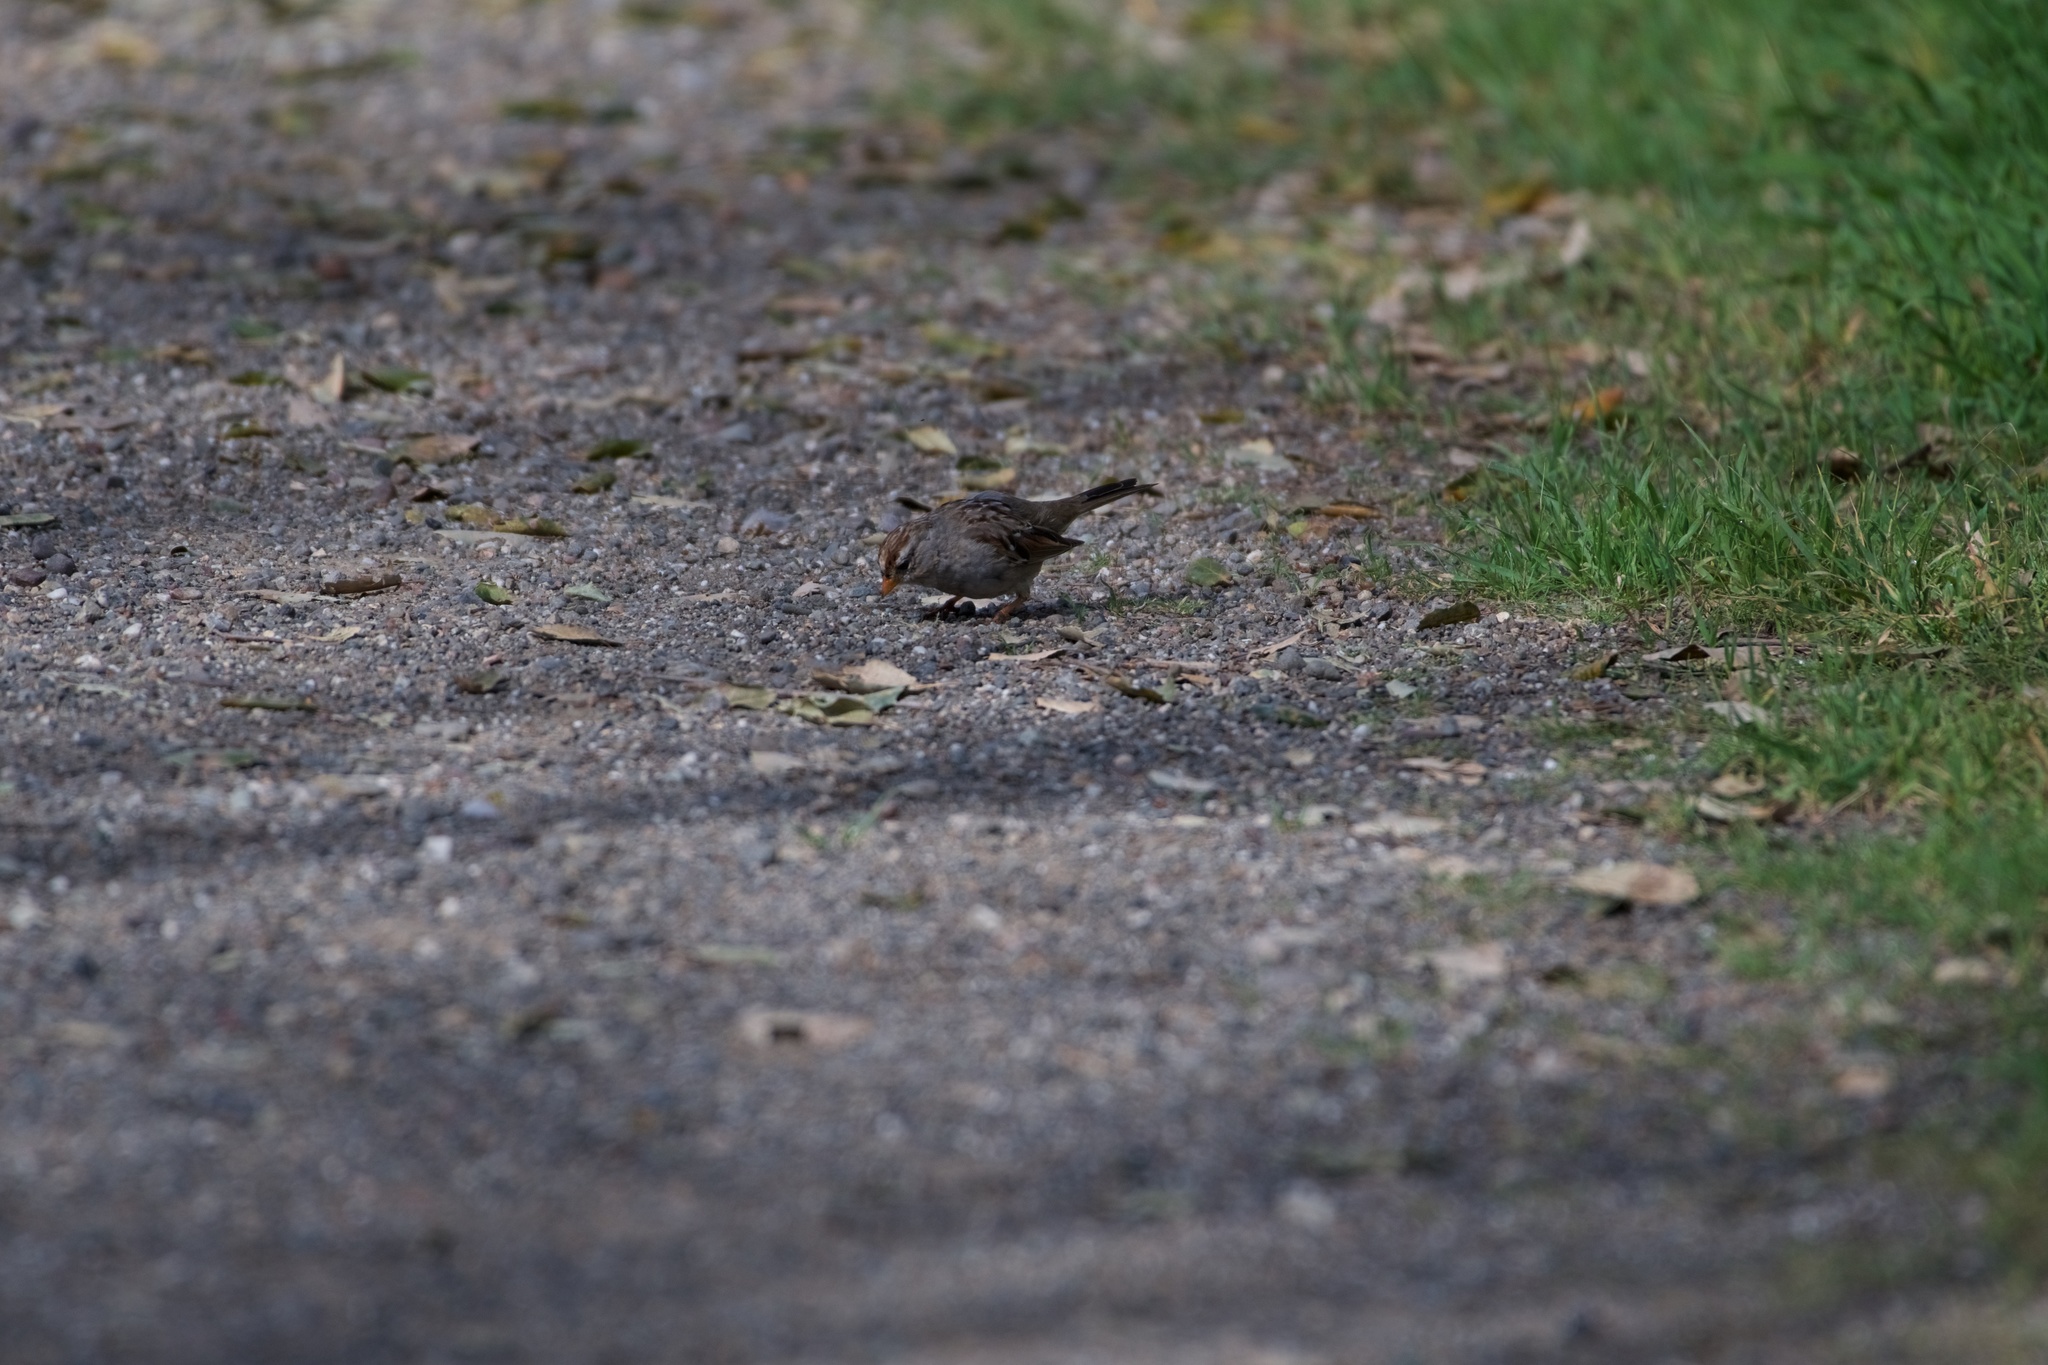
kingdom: Animalia
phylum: Chordata
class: Aves
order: Passeriformes
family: Passerellidae
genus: Zonotrichia
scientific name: Zonotrichia leucophrys
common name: White-crowned sparrow
